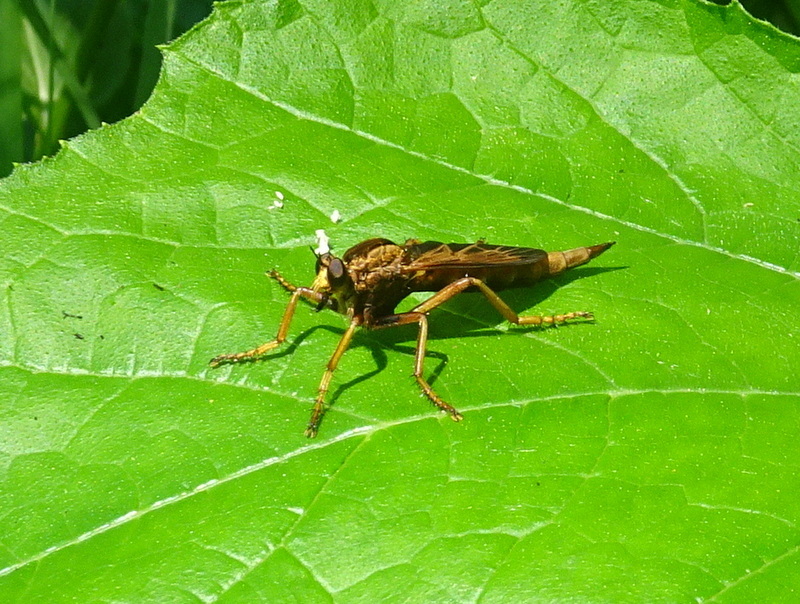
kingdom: Animalia
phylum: Arthropoda
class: Insecta
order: Diptera
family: Asilidae
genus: Asilus
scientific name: Asilus sericeus
